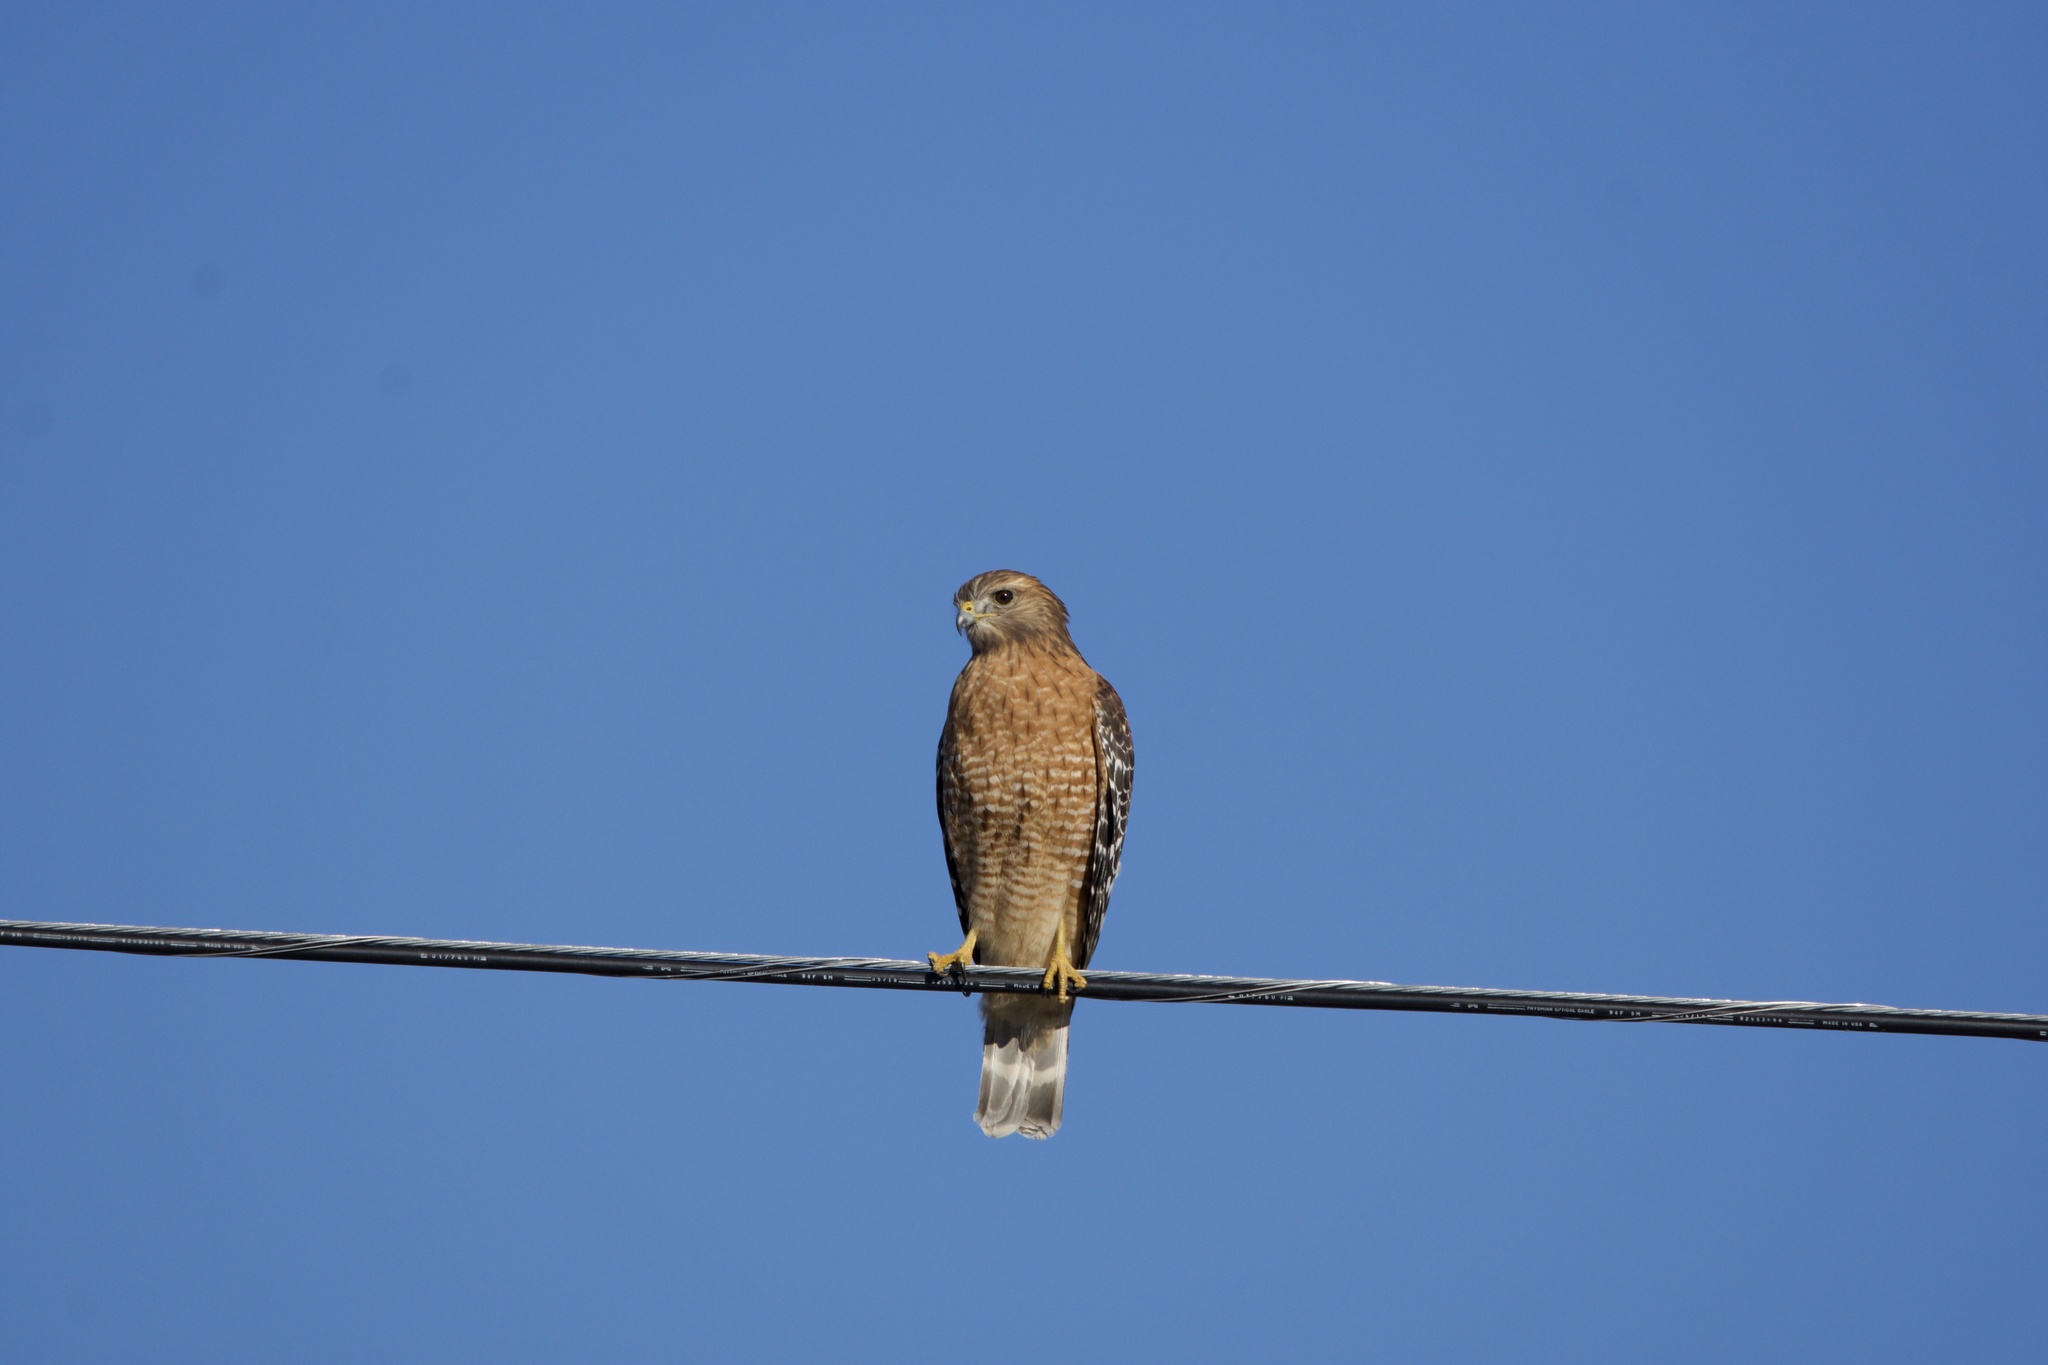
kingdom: Animalia
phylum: Chordata
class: Aves
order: Accipitriformes
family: Accipitridae
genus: Buteo
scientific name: Buteo lineatus
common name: Red-shouldered hawk
